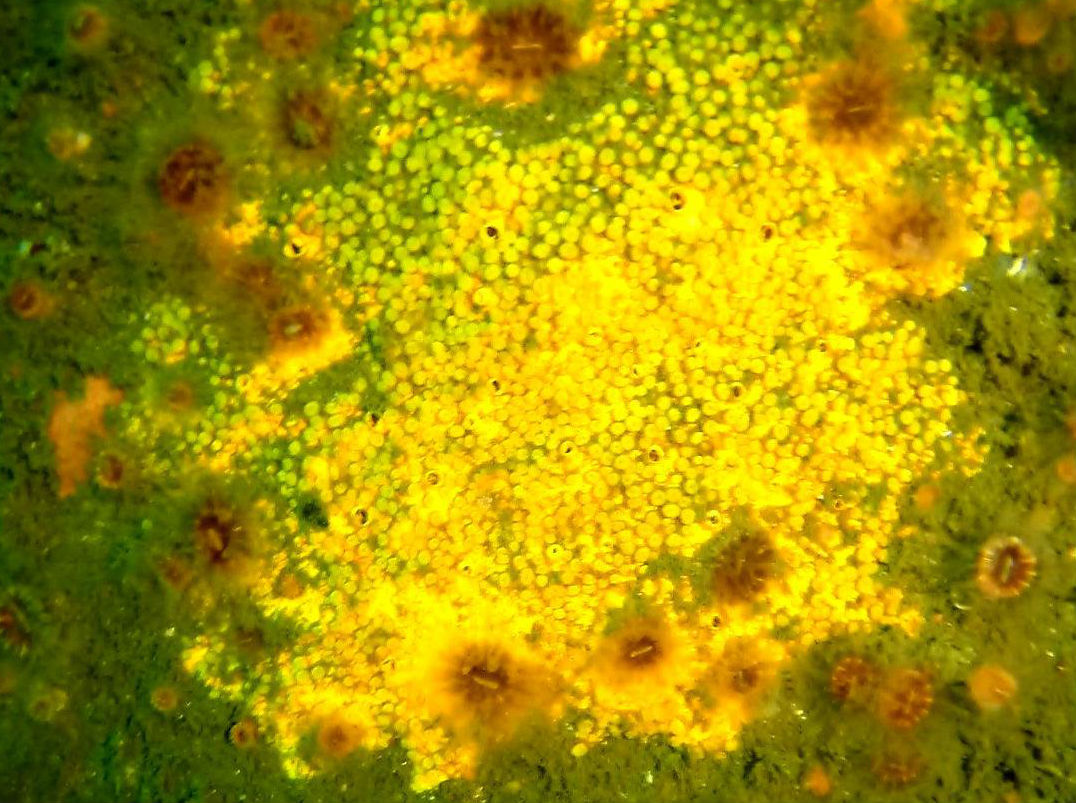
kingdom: Animalia
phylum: Cnidaria
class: Anthozoa
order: Scleractinia
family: Caryophylliidae
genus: Paracyathus
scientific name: Paracyathus stearnsii
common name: Brown stony coral
